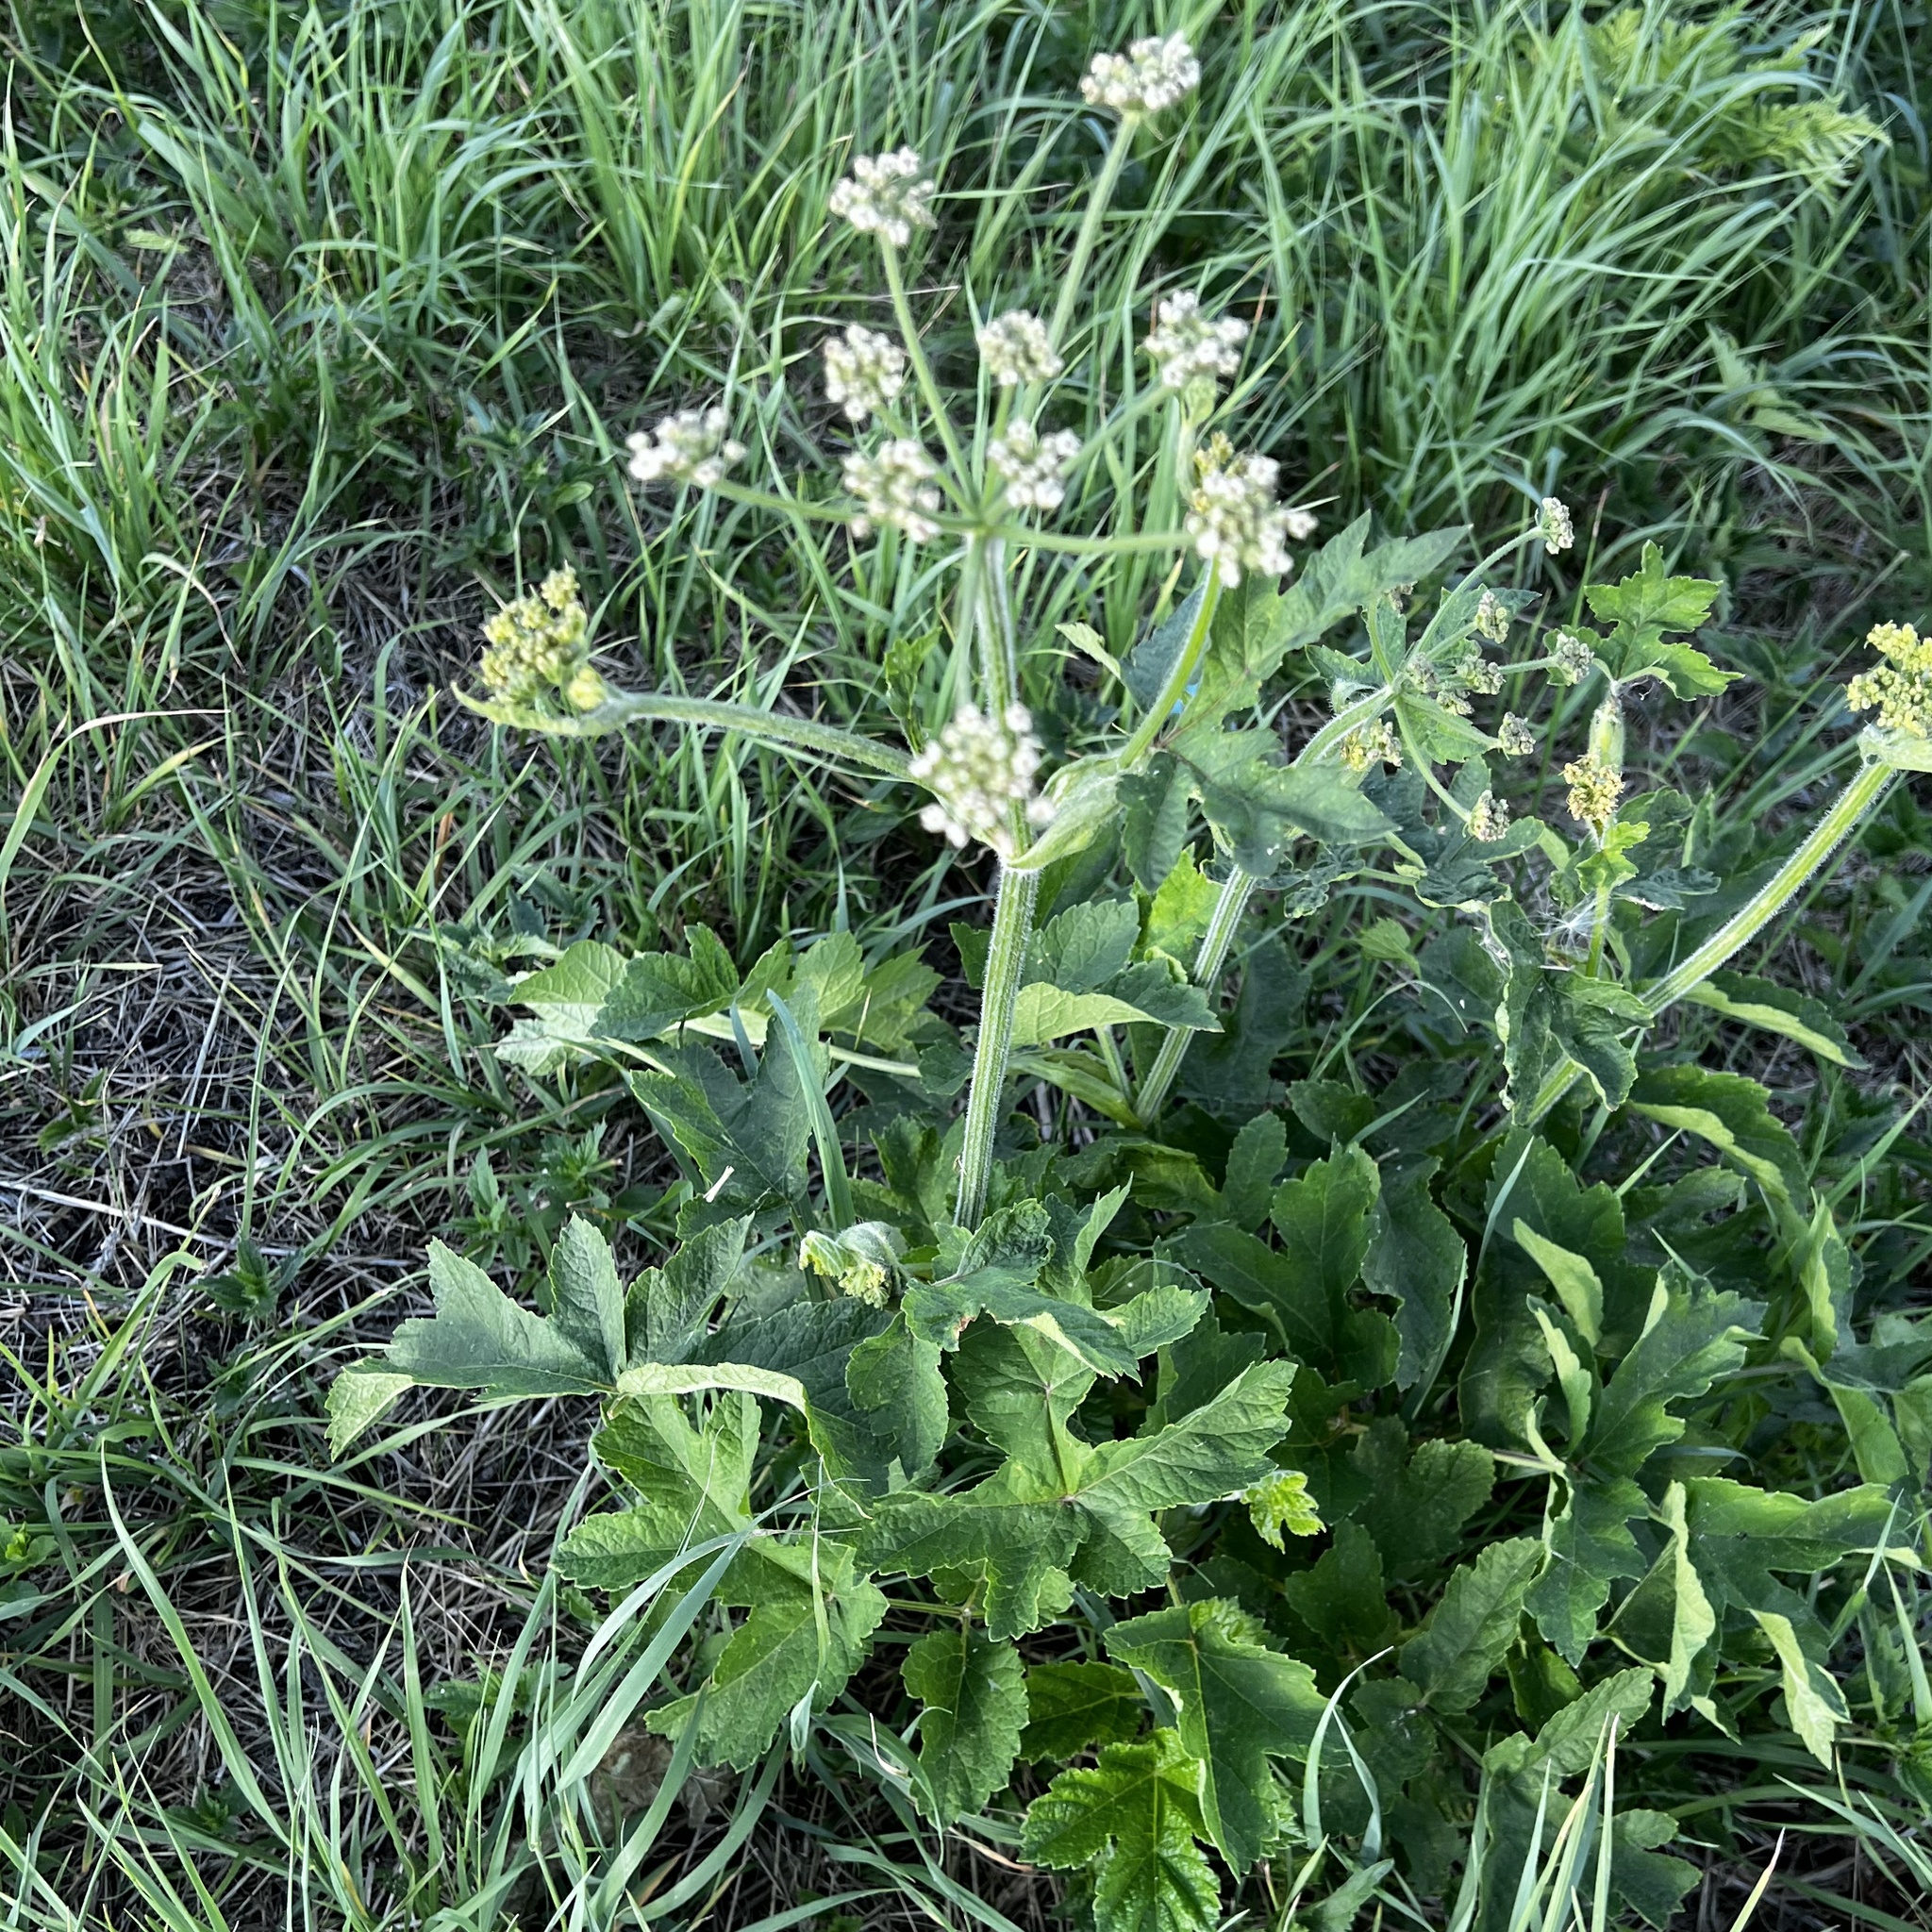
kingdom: Plantae
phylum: Tracheophyta
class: Magnoliopsida
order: Apiales
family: Apiaceae
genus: Heracleum
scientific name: Heracleum sphondylium
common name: Hogweed
